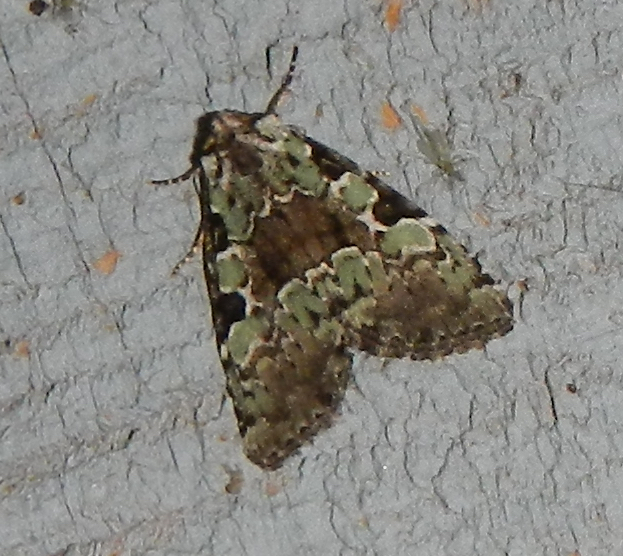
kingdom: Animalia
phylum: Arthropoda
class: Insecta
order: Lepidoptera
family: Noctuidae
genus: Leuconycta
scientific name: Leuconycta lepidula
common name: Marbled-green leuconycta moth
